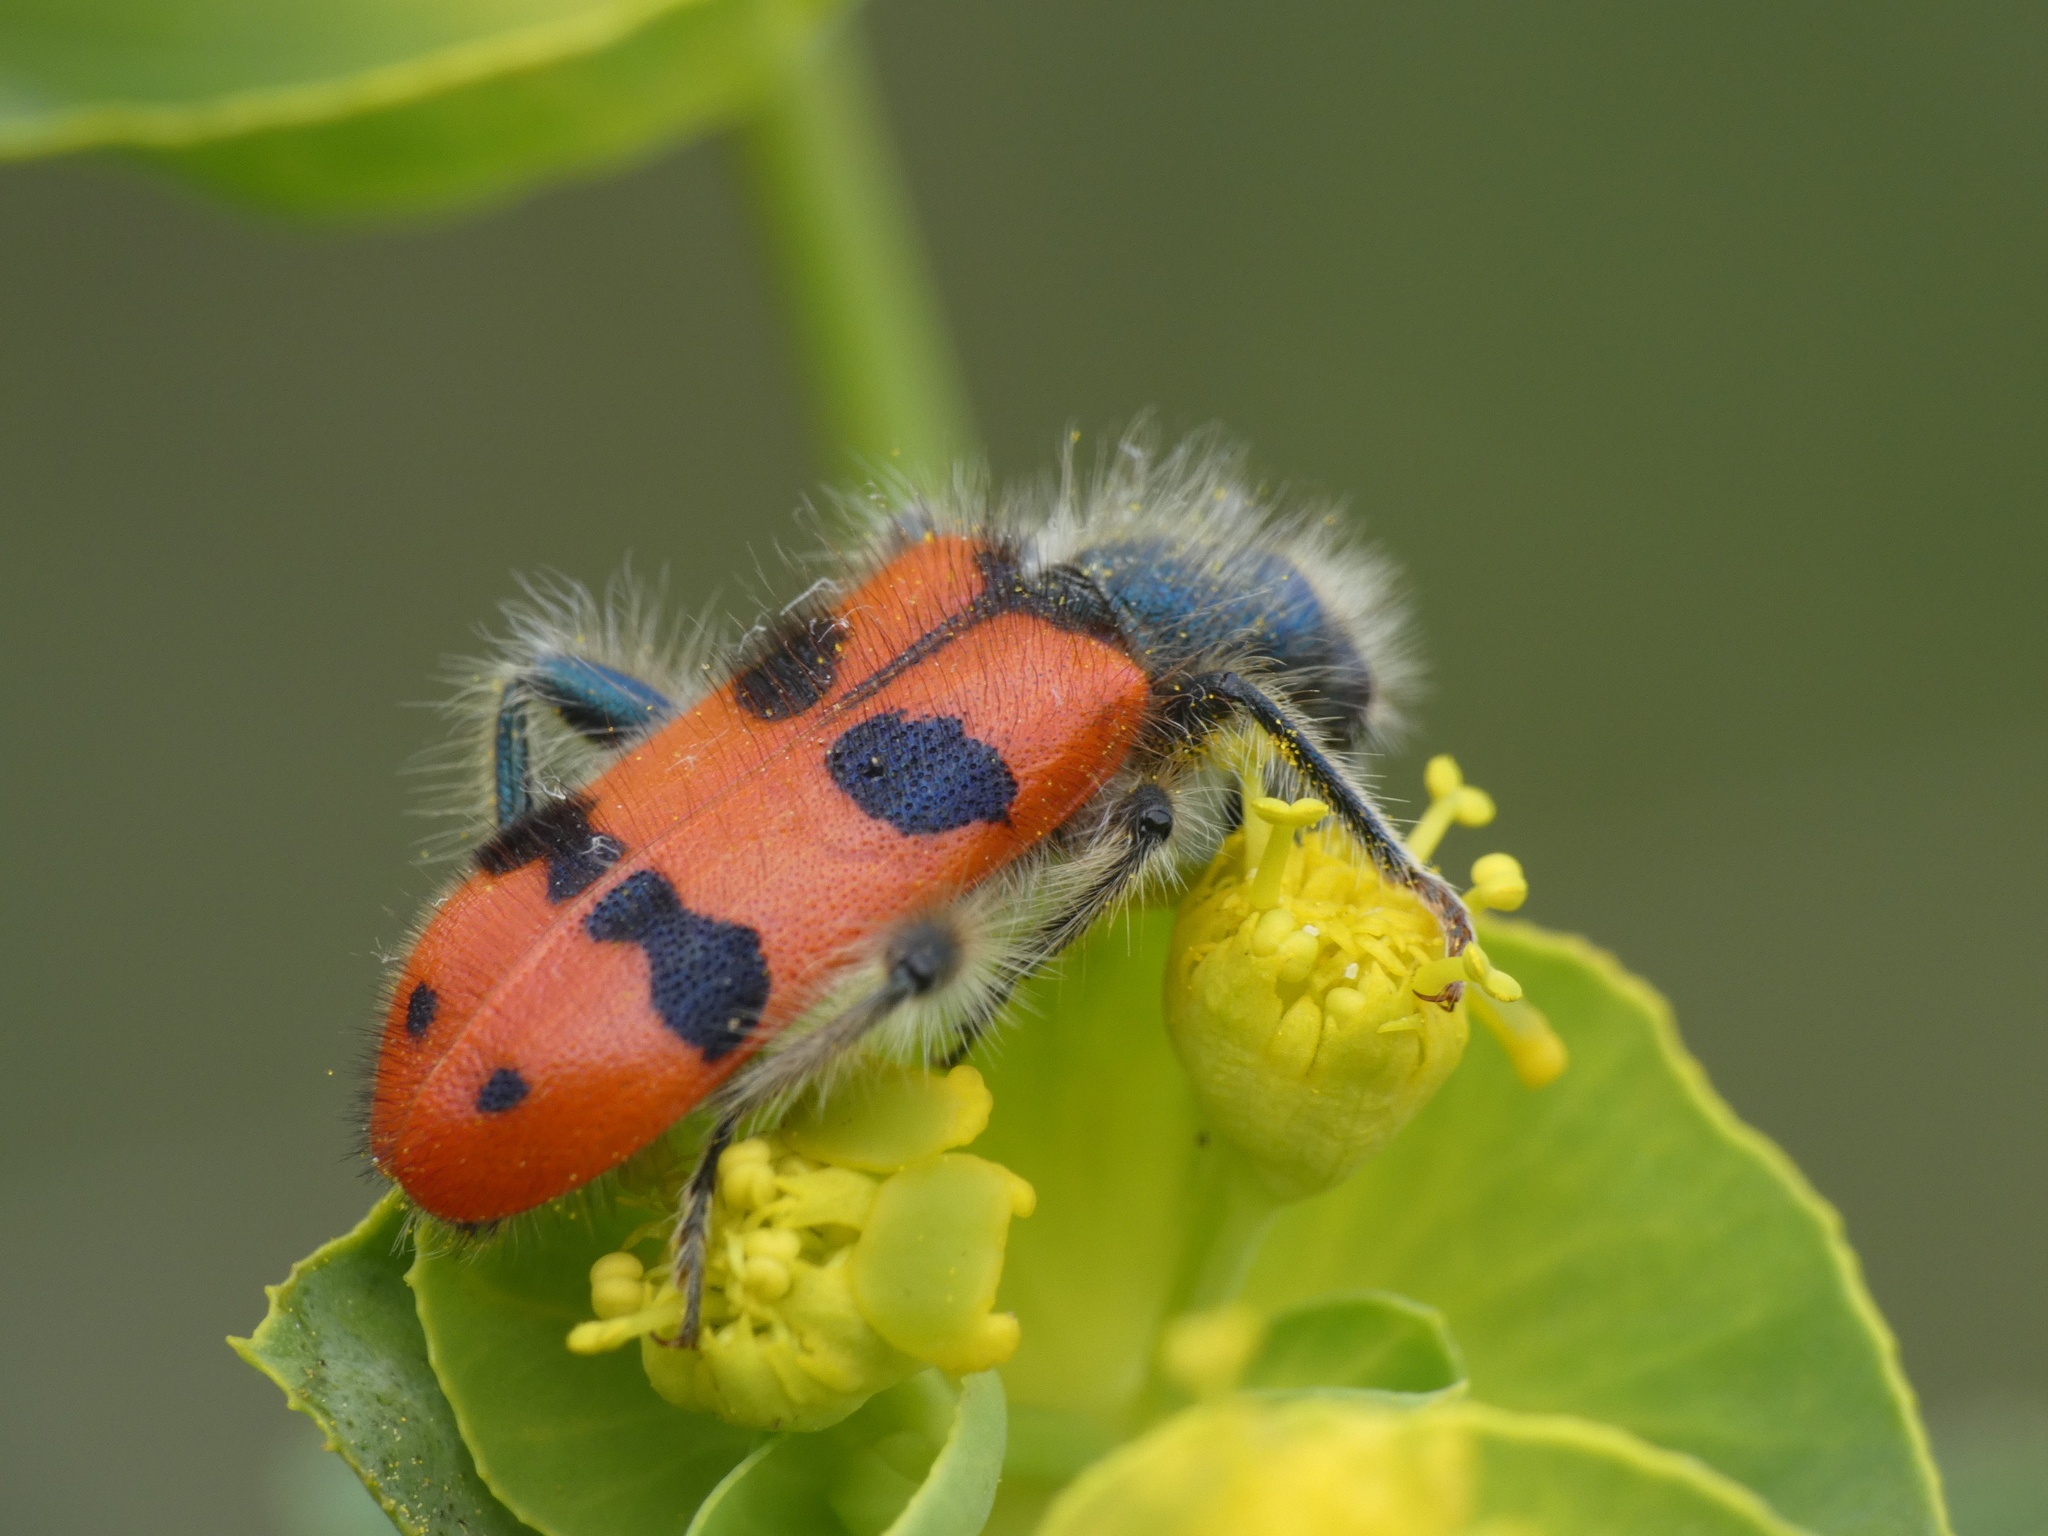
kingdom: Animalia
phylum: Arthropoda
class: Insecta
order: Coleoptera
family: Cleridae
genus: Trichodes
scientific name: Trichodes alvearius
